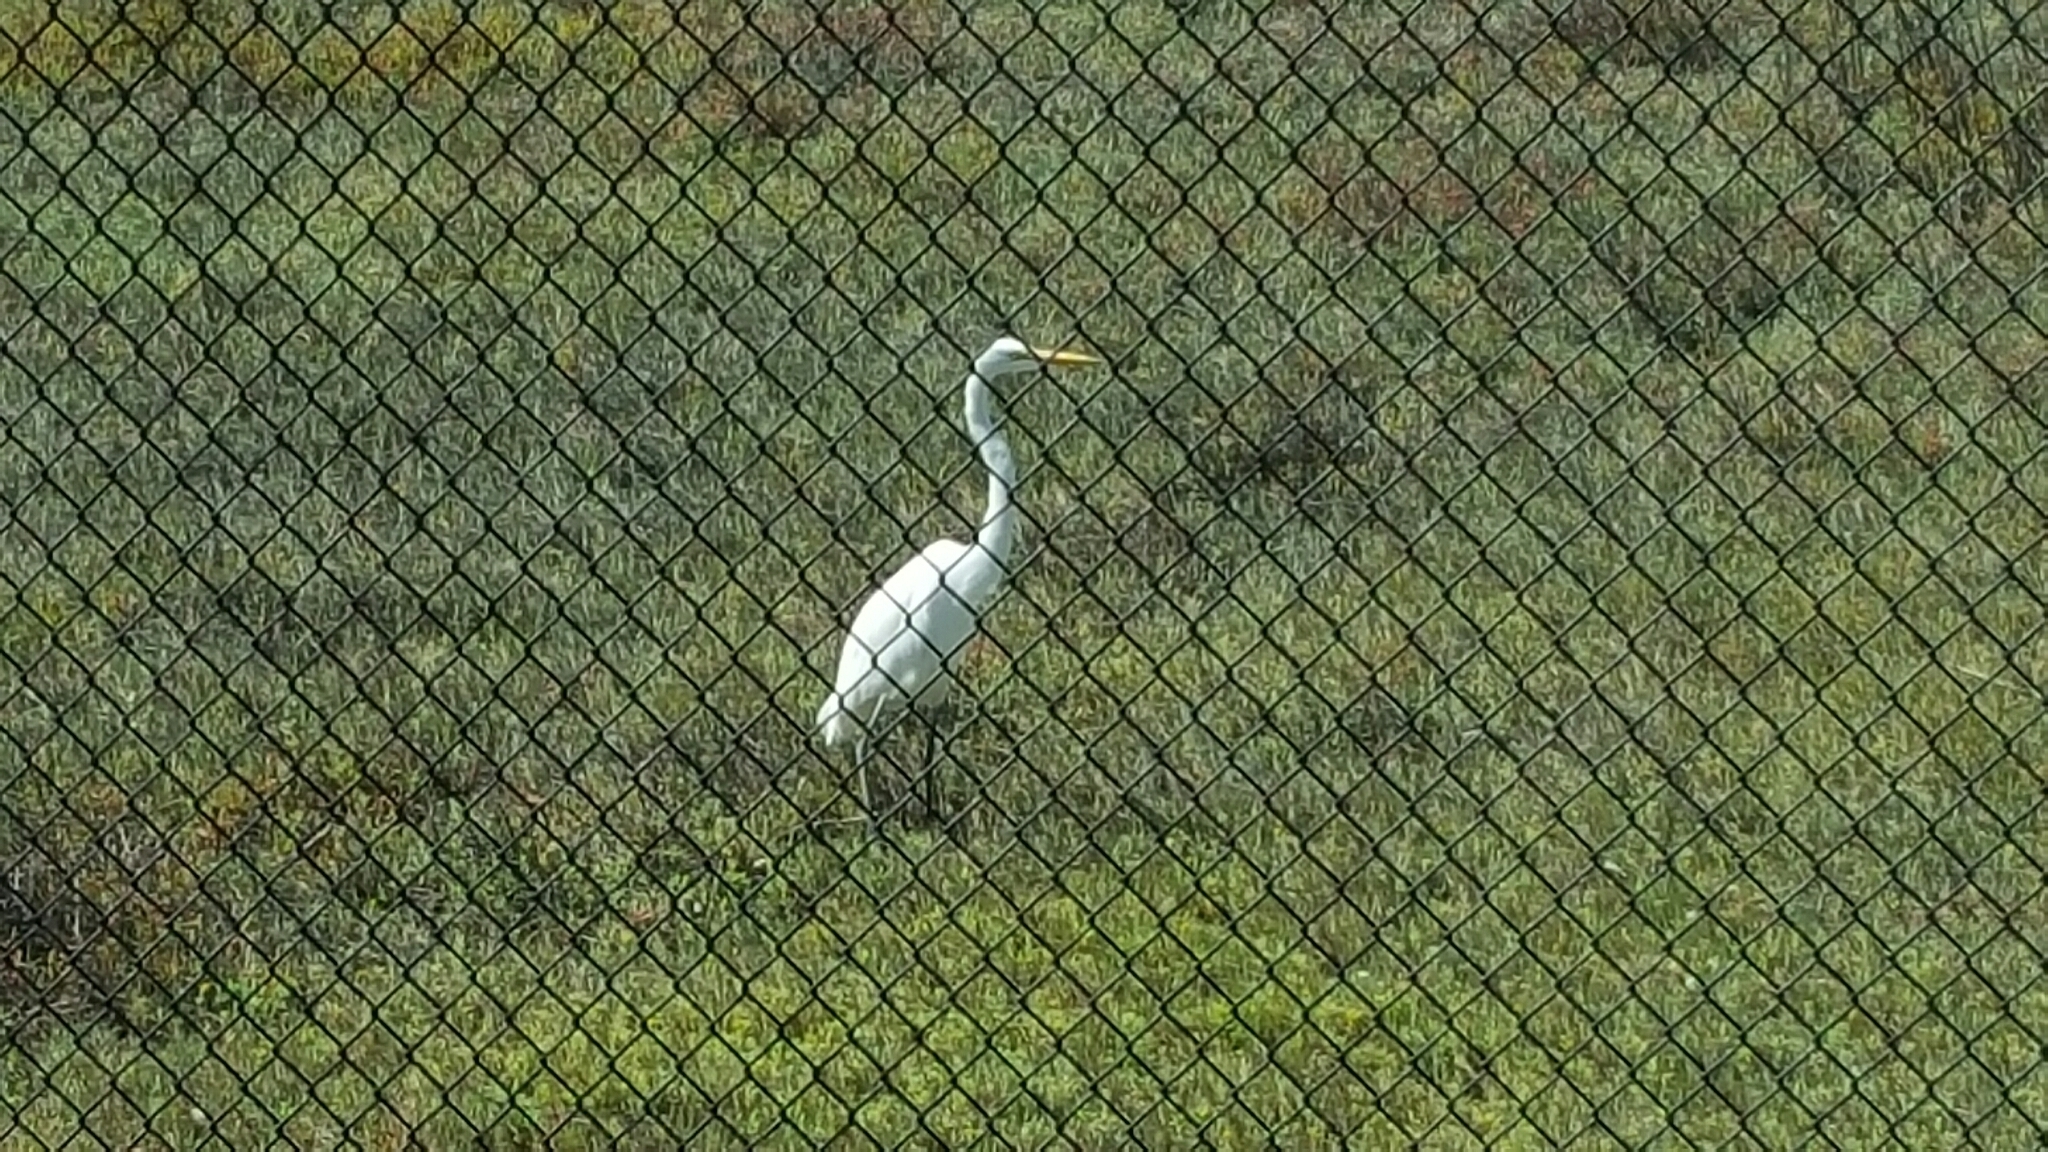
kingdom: Animalia
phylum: Chordata
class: Aves
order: Pelecaniformes
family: Ardeidae
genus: Ardea
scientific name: Ardea alba
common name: Great egret
